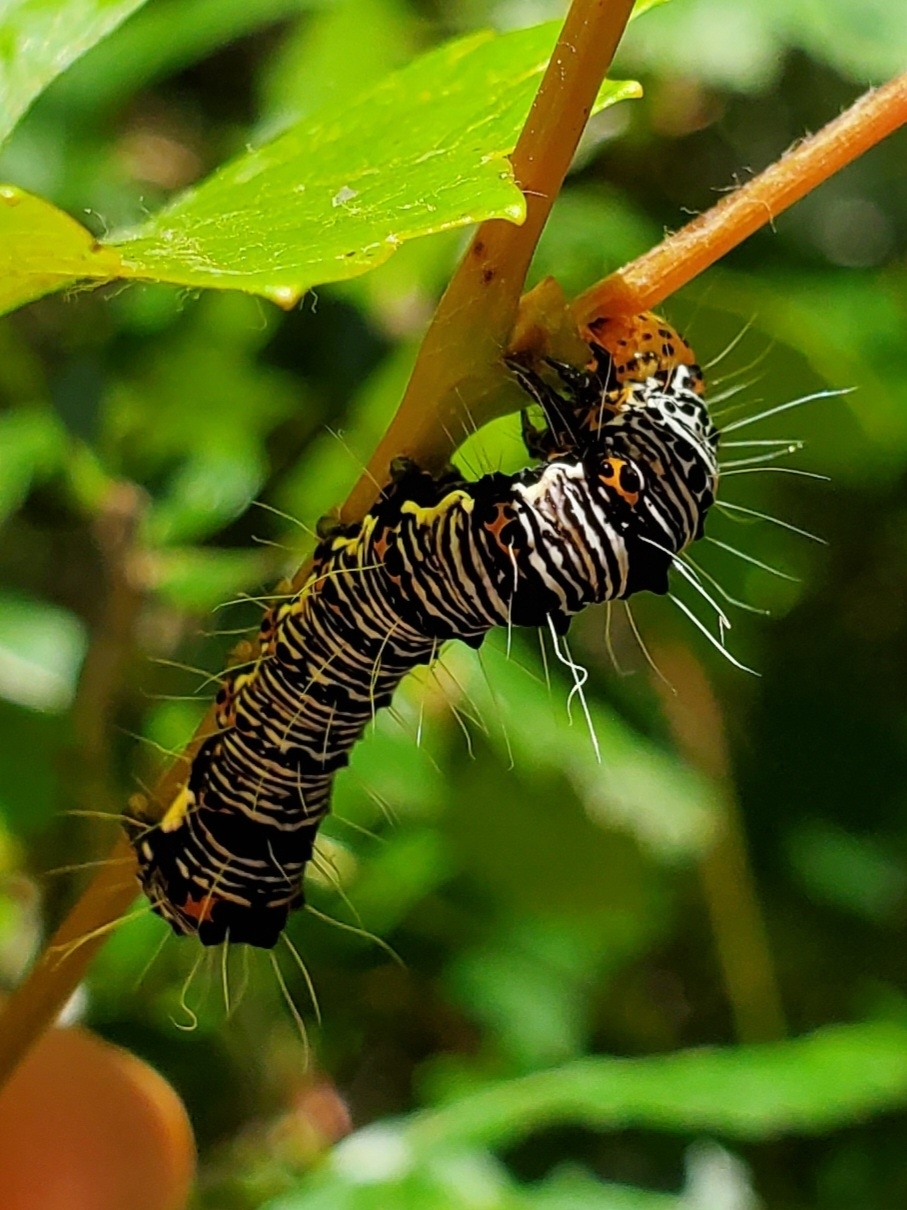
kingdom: Animalia
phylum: Arthropoda
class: Insecta
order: Lepidoptera
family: Noctuidae
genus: Alypia
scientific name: Alypia octomaculata
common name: Eight-spotted forester
